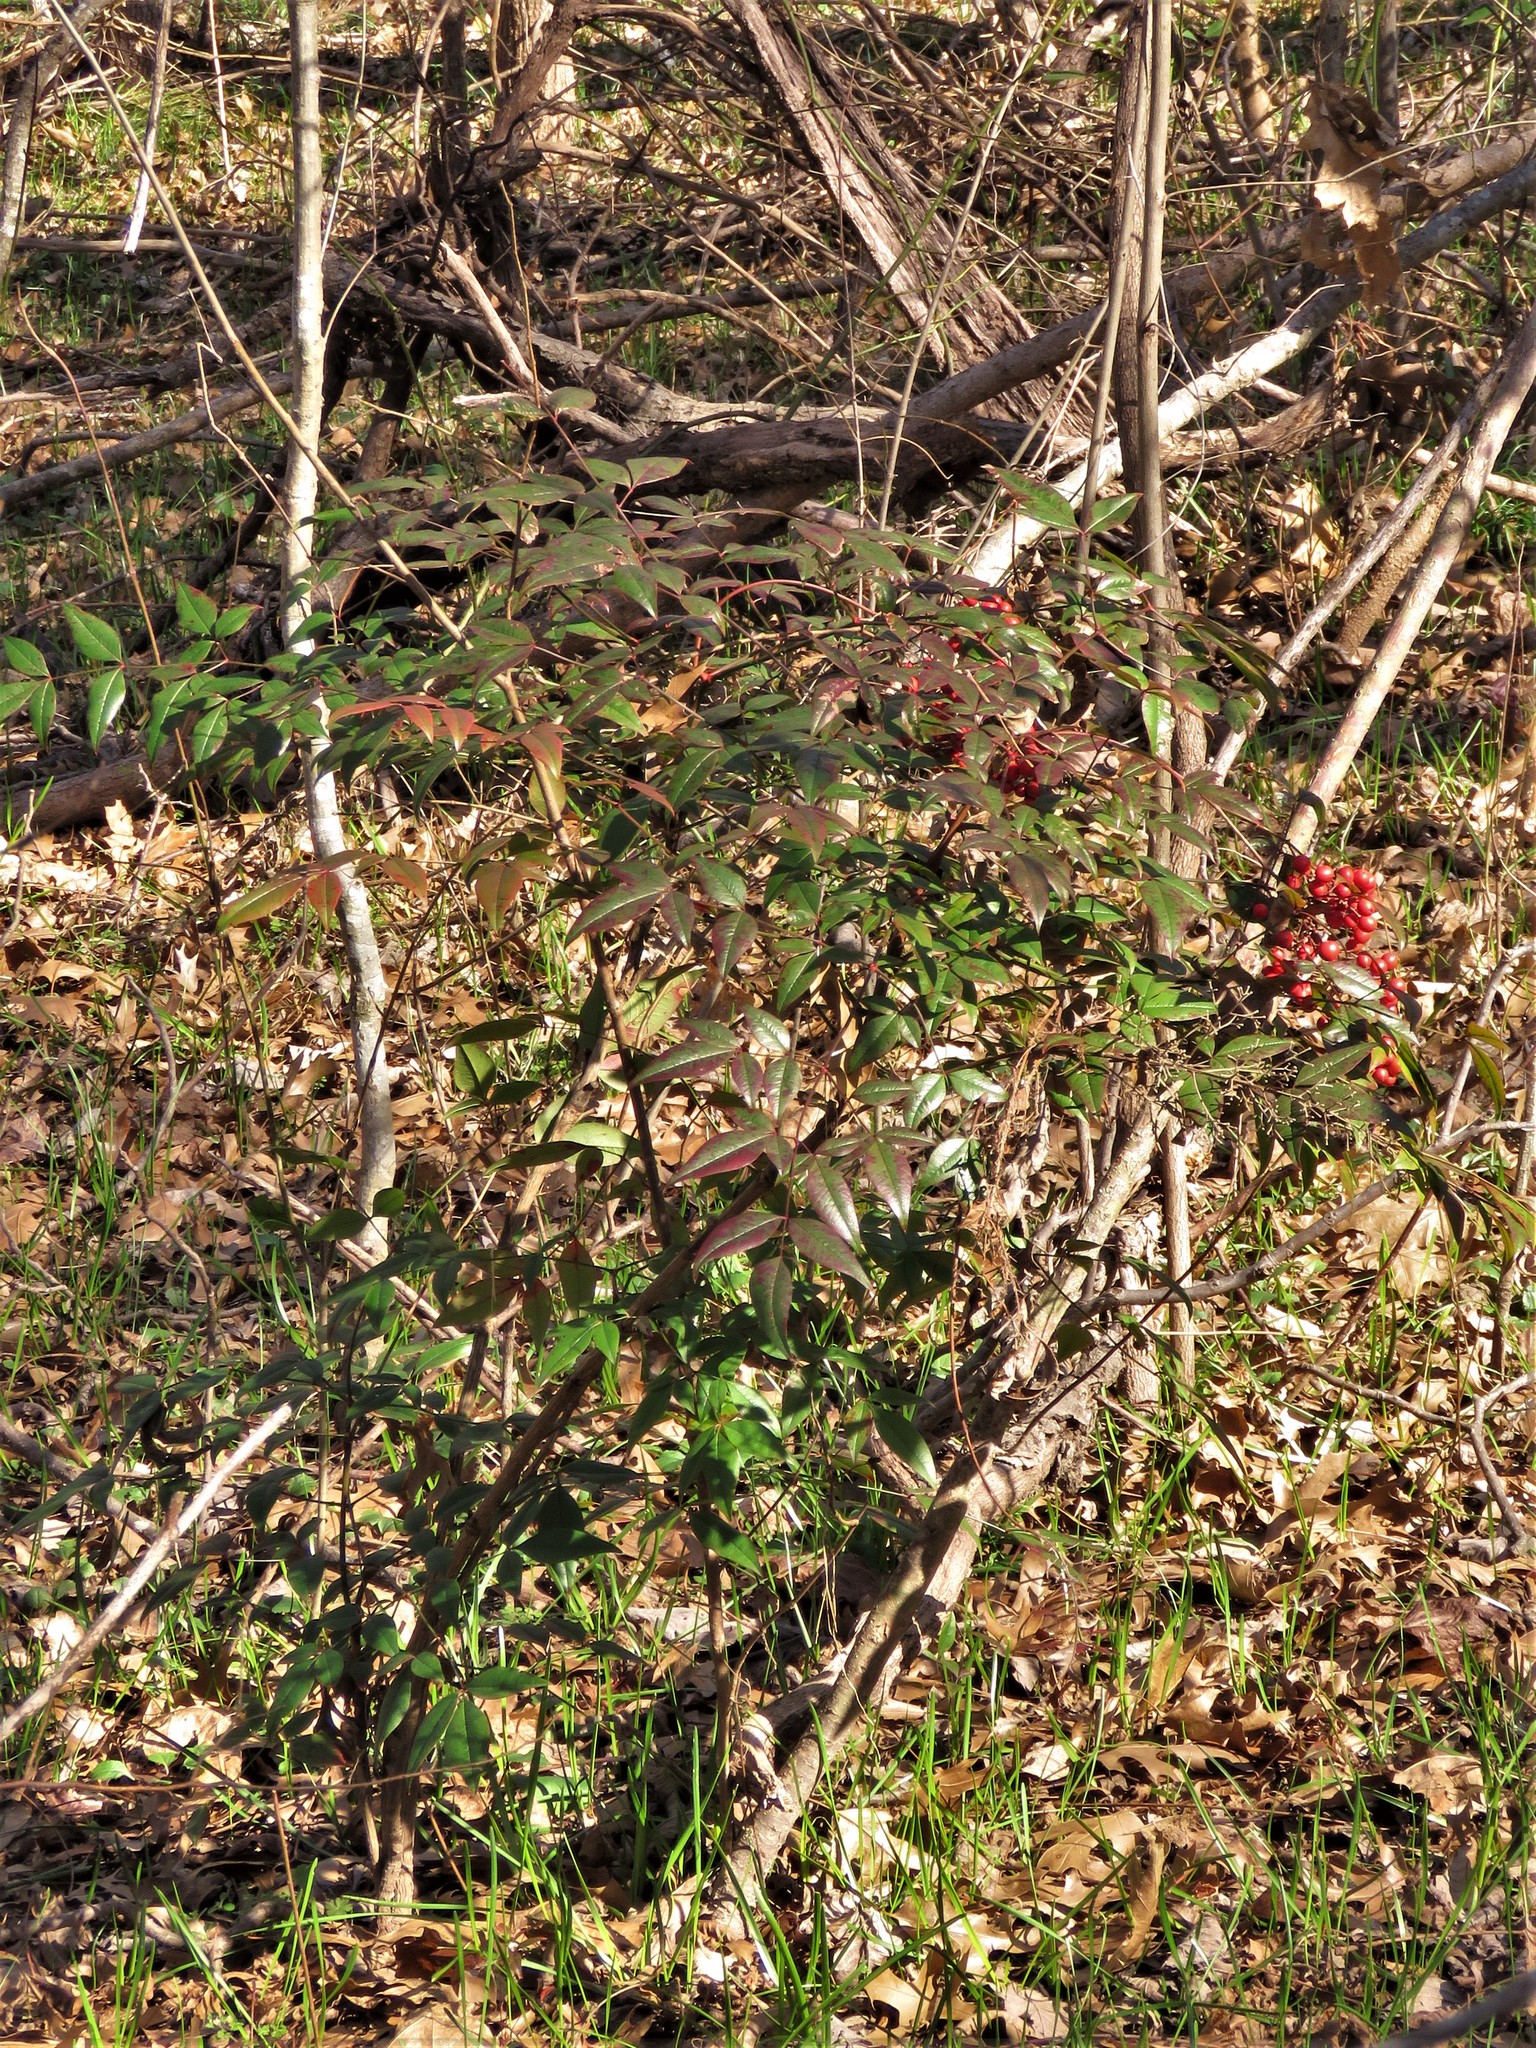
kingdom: Plantae
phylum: Tracheophyta
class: Magnoliopsida
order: Ranunculales
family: Berberidaceae
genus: Nandina
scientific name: Nandina domestica
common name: Sacred bamboo
